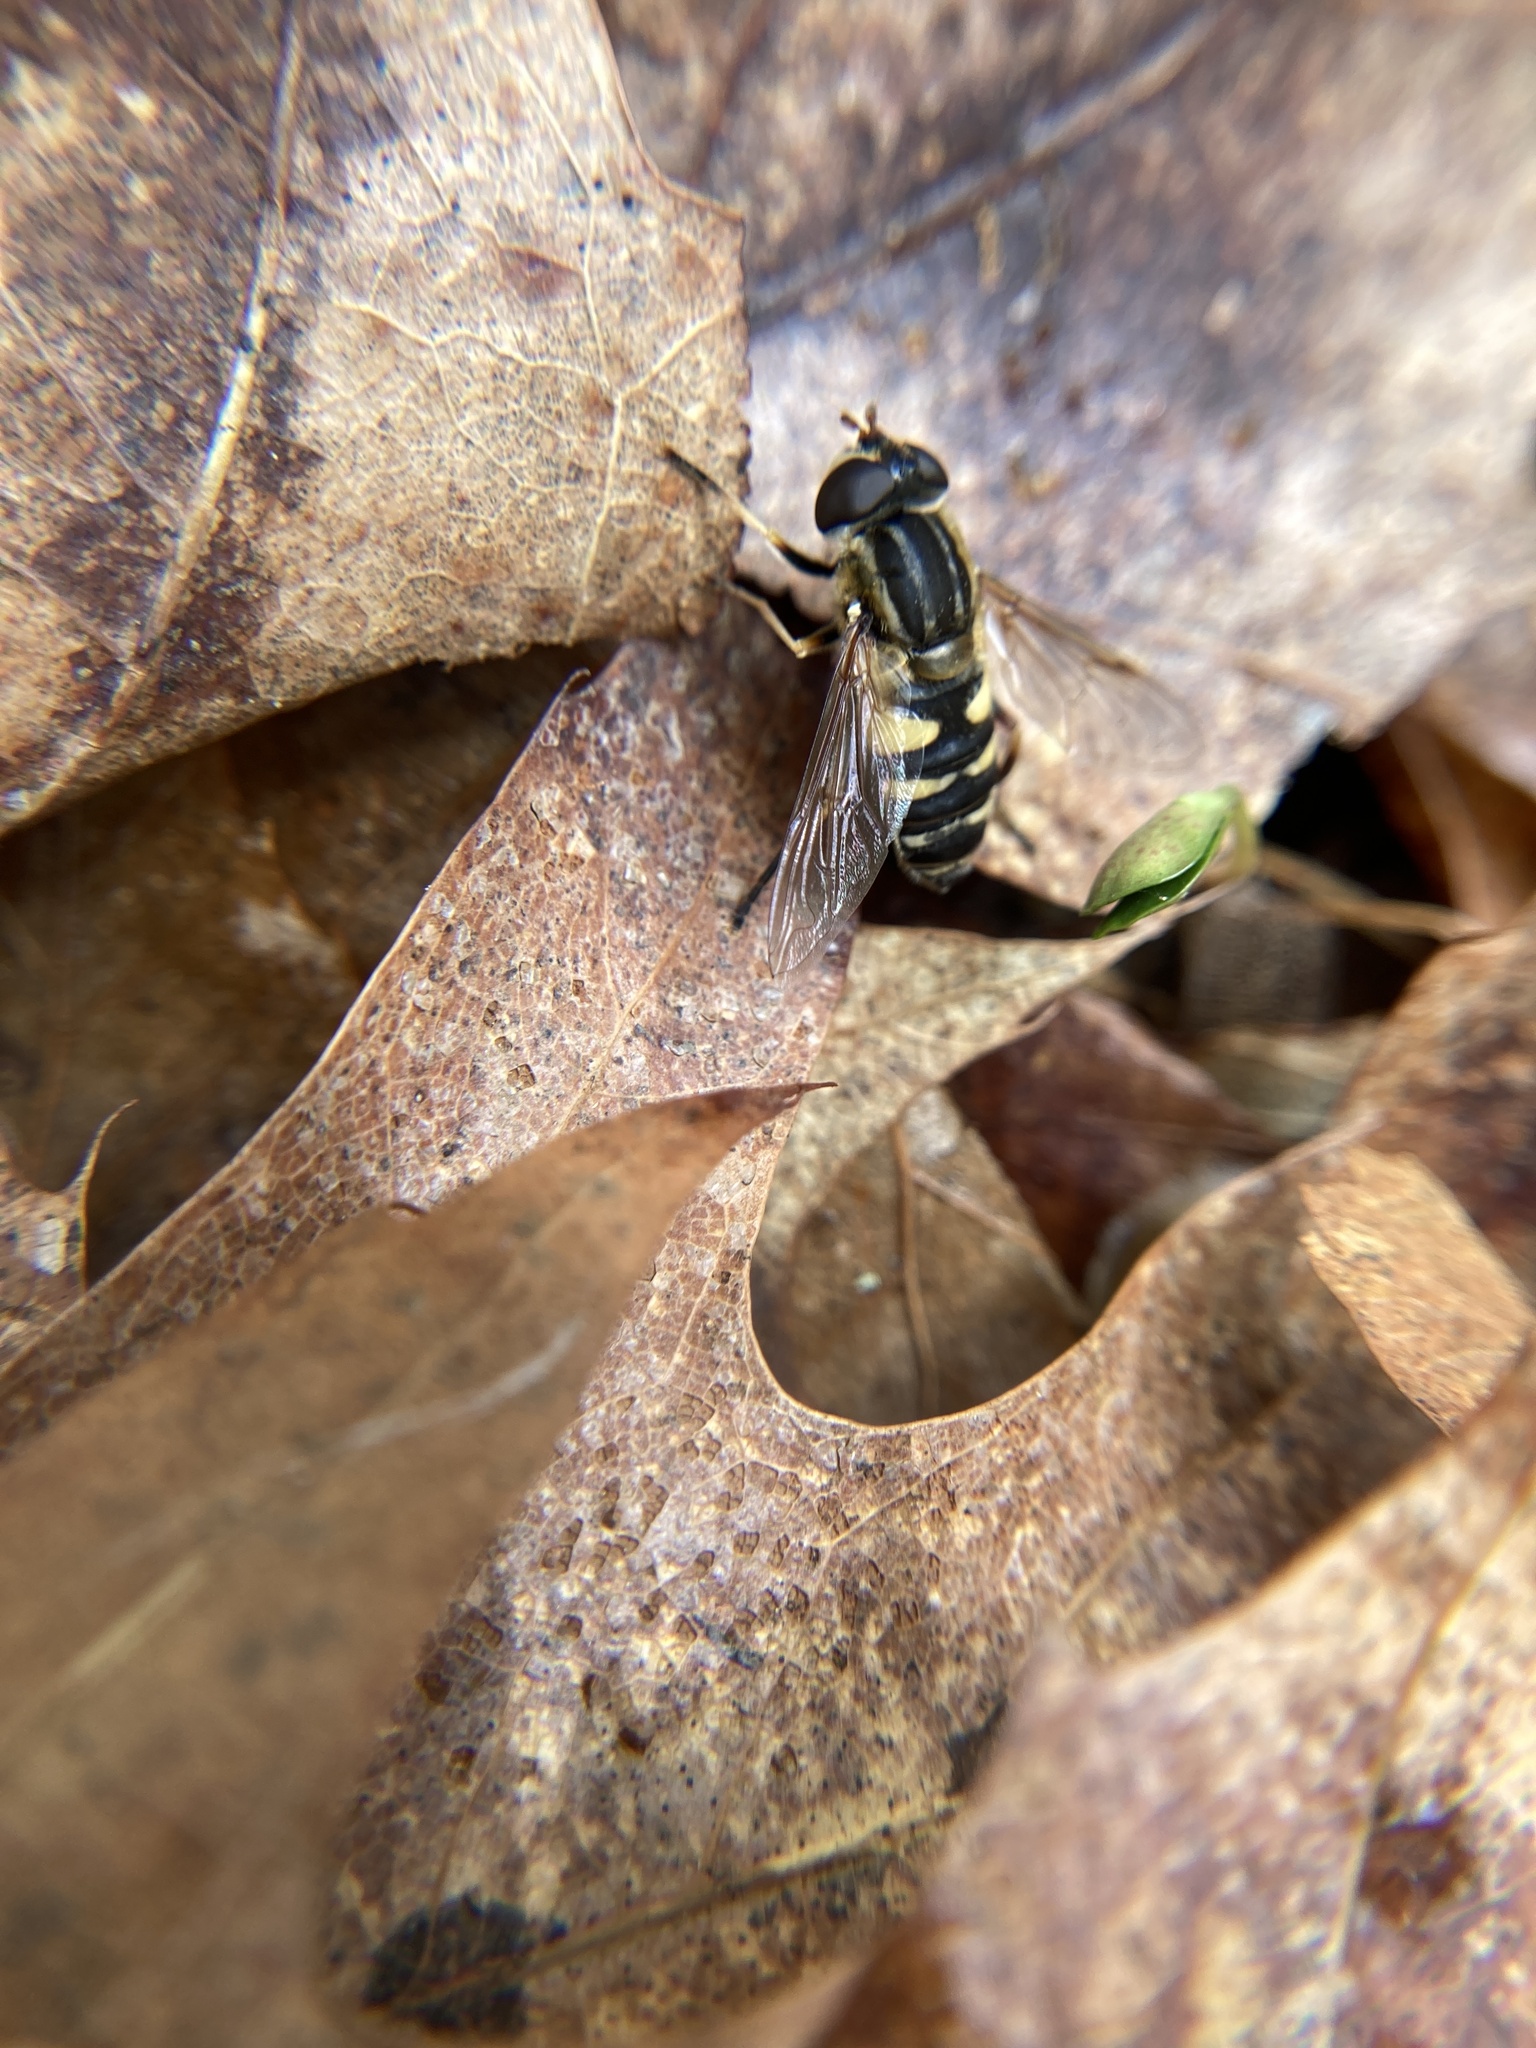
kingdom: Animalia
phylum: Arthropoda
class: Insecta
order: Diptera
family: Syrphidae
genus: Helophilus
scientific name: Helophilus fasciatus
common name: Narrow-headed marsh fly
